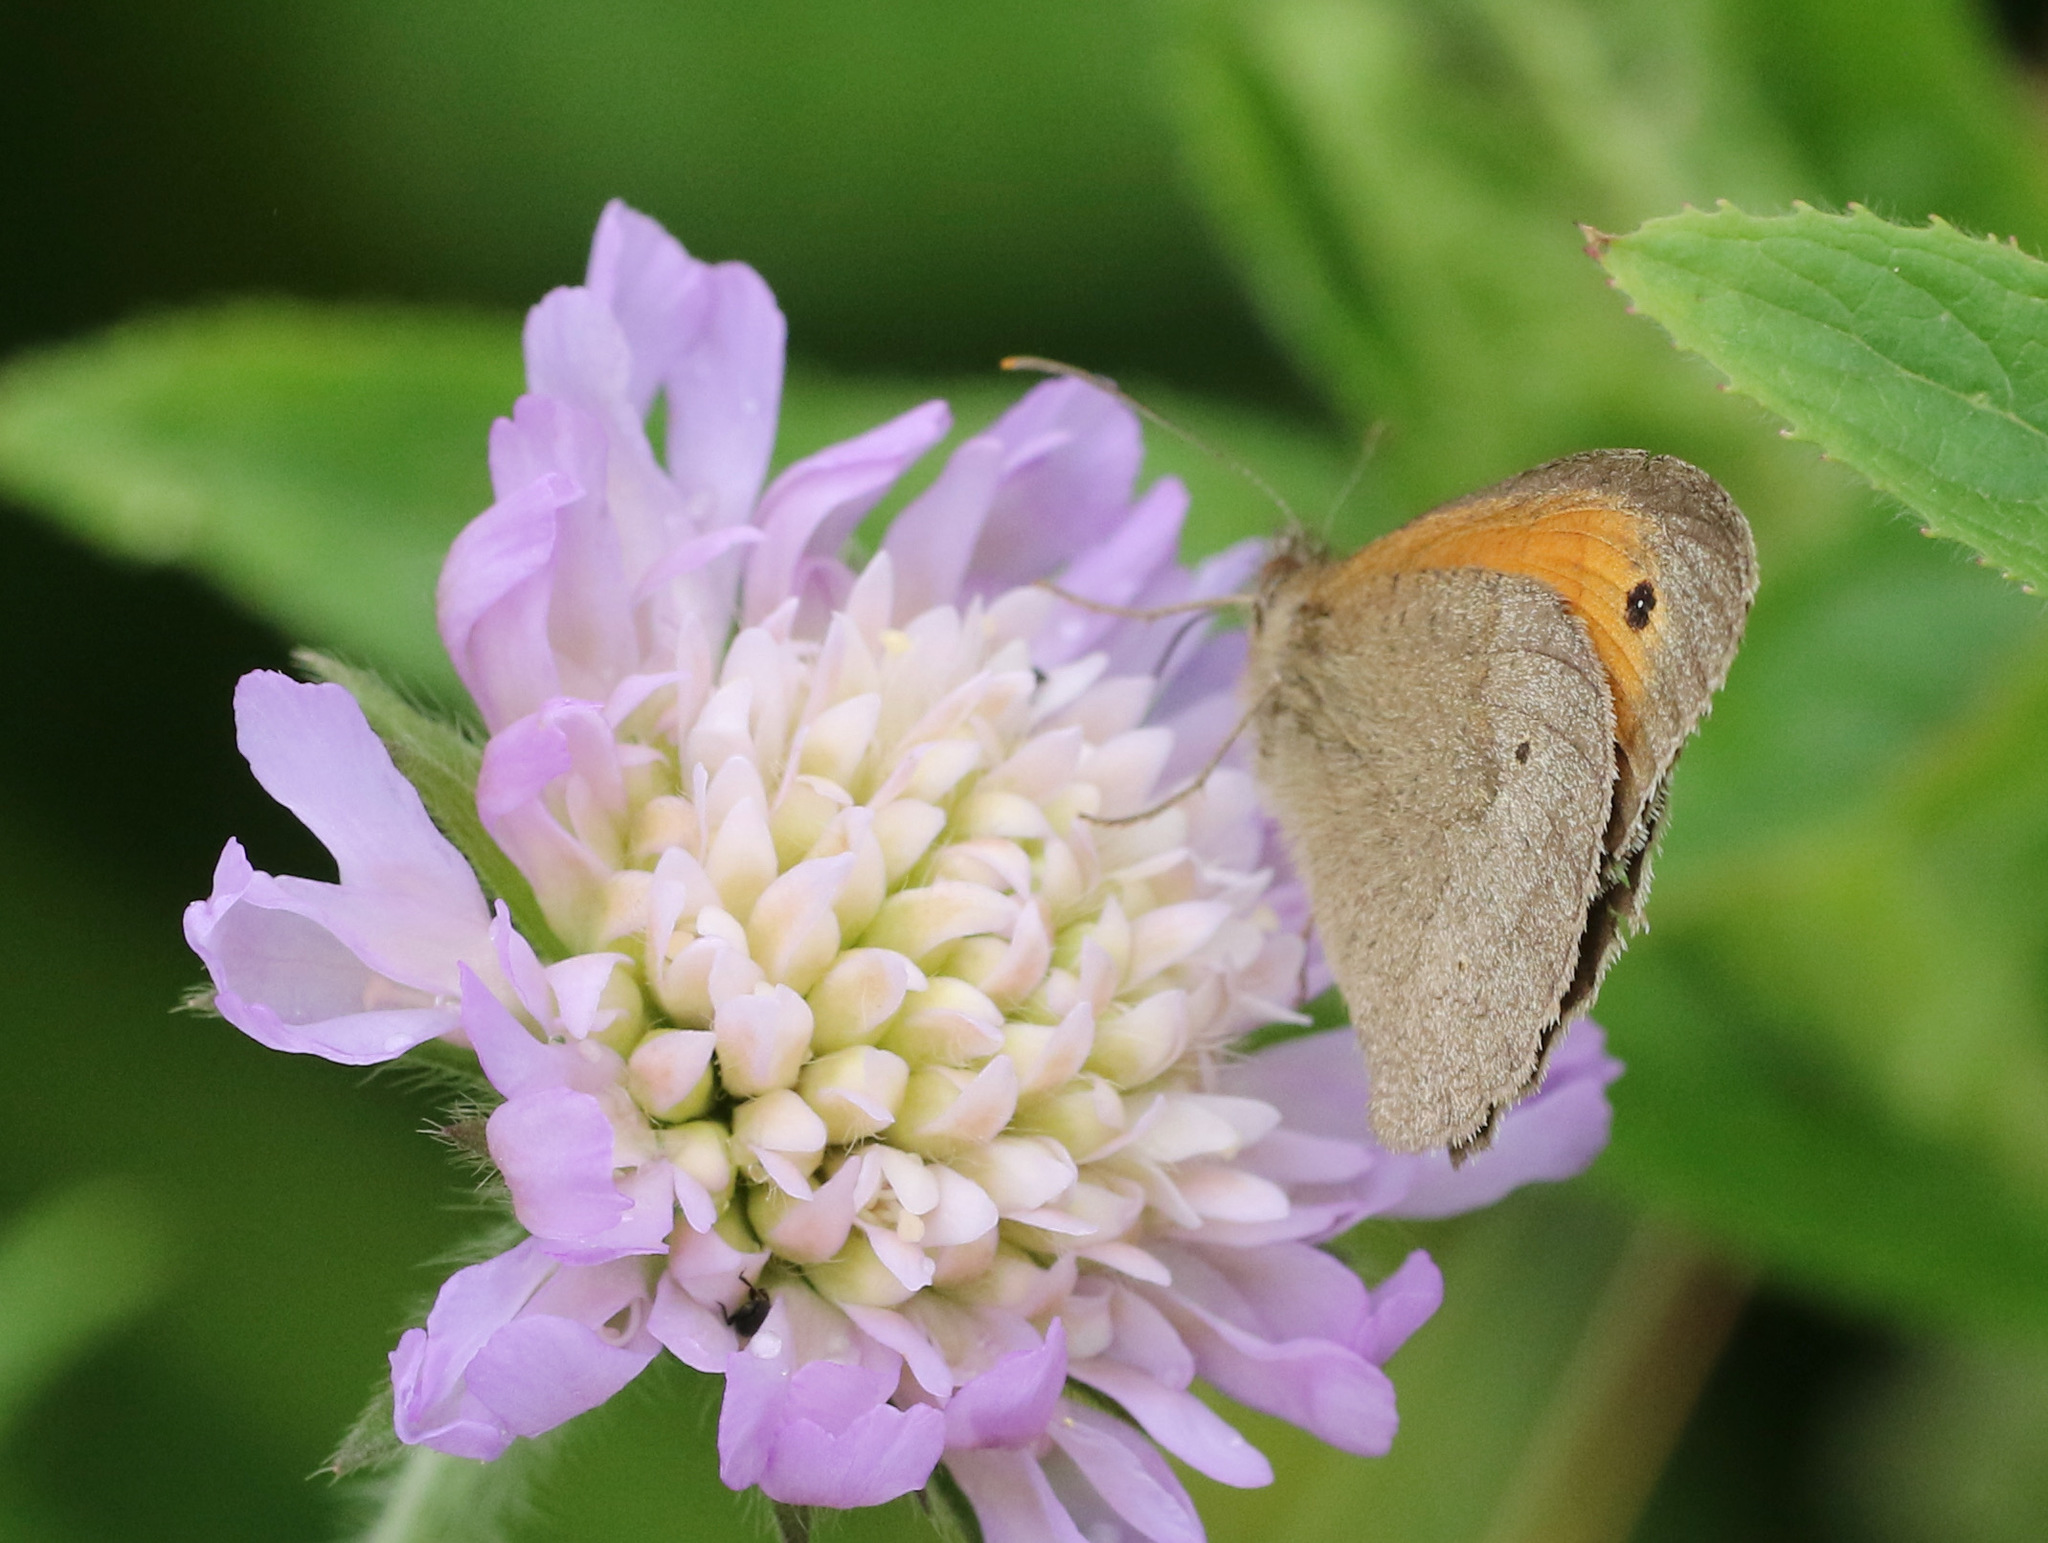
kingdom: Animalia
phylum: Arthropoda
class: Insecta
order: Lepidoptera
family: Nymphalidae
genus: Maniola
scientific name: Maniola jurtina
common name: Meadow brown
